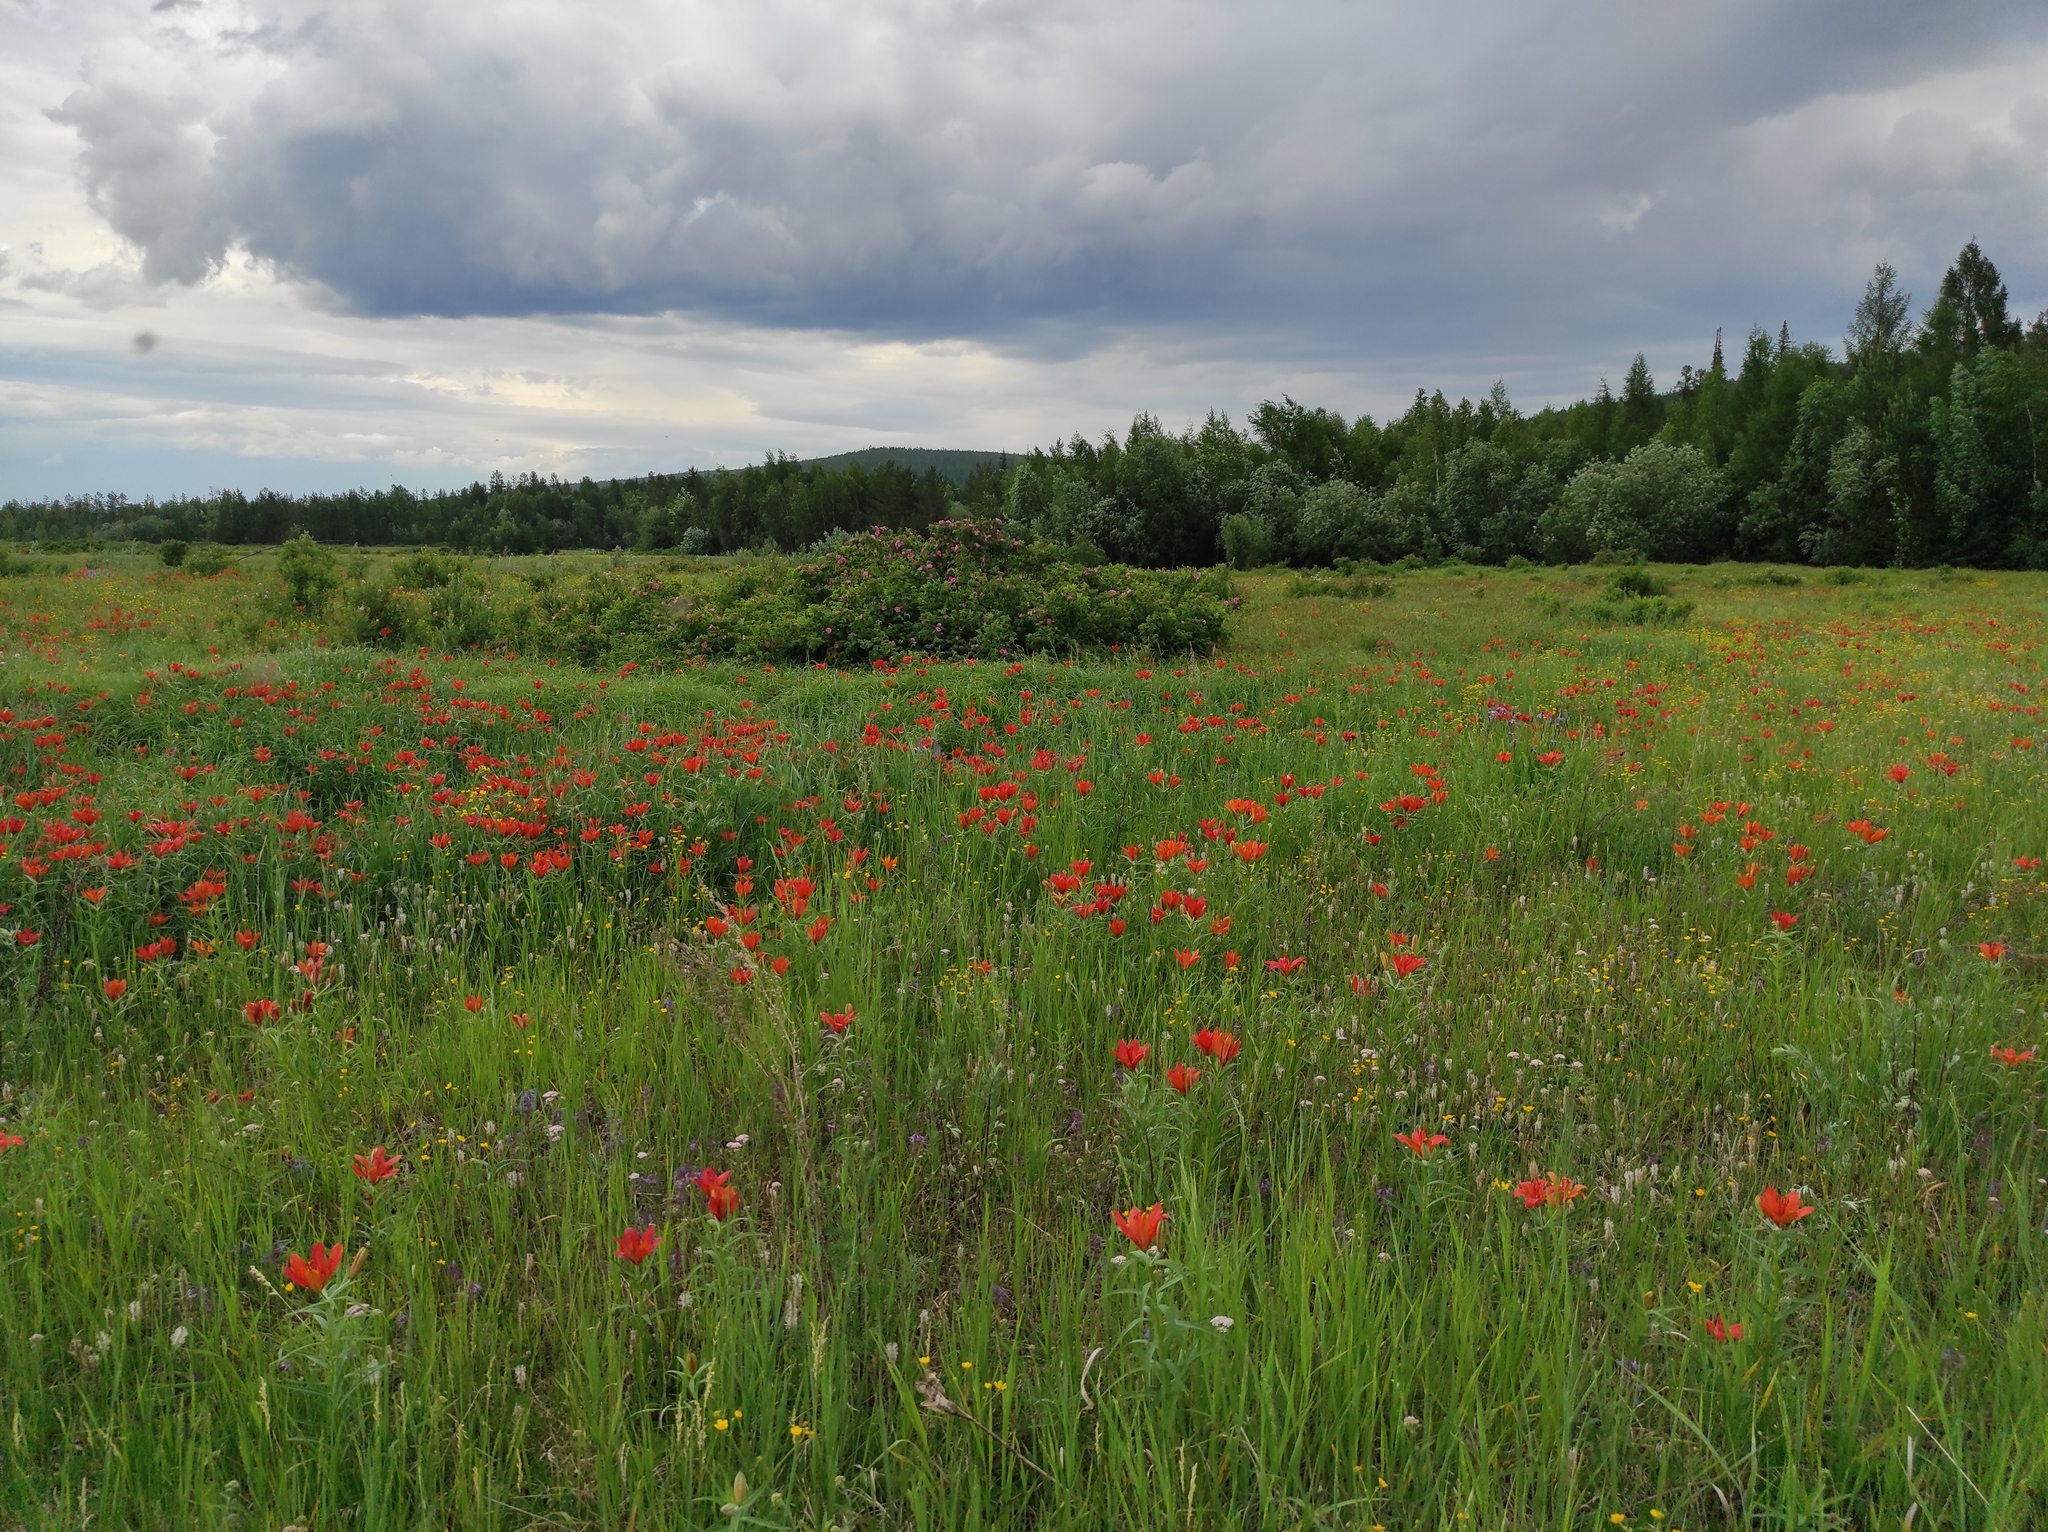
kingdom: Plantae
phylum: Tracheophyta
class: Liliopsida
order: Liliales
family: Liliaceae
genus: Lilium
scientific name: Lilium pensylvanicum
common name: Candlestick lily
